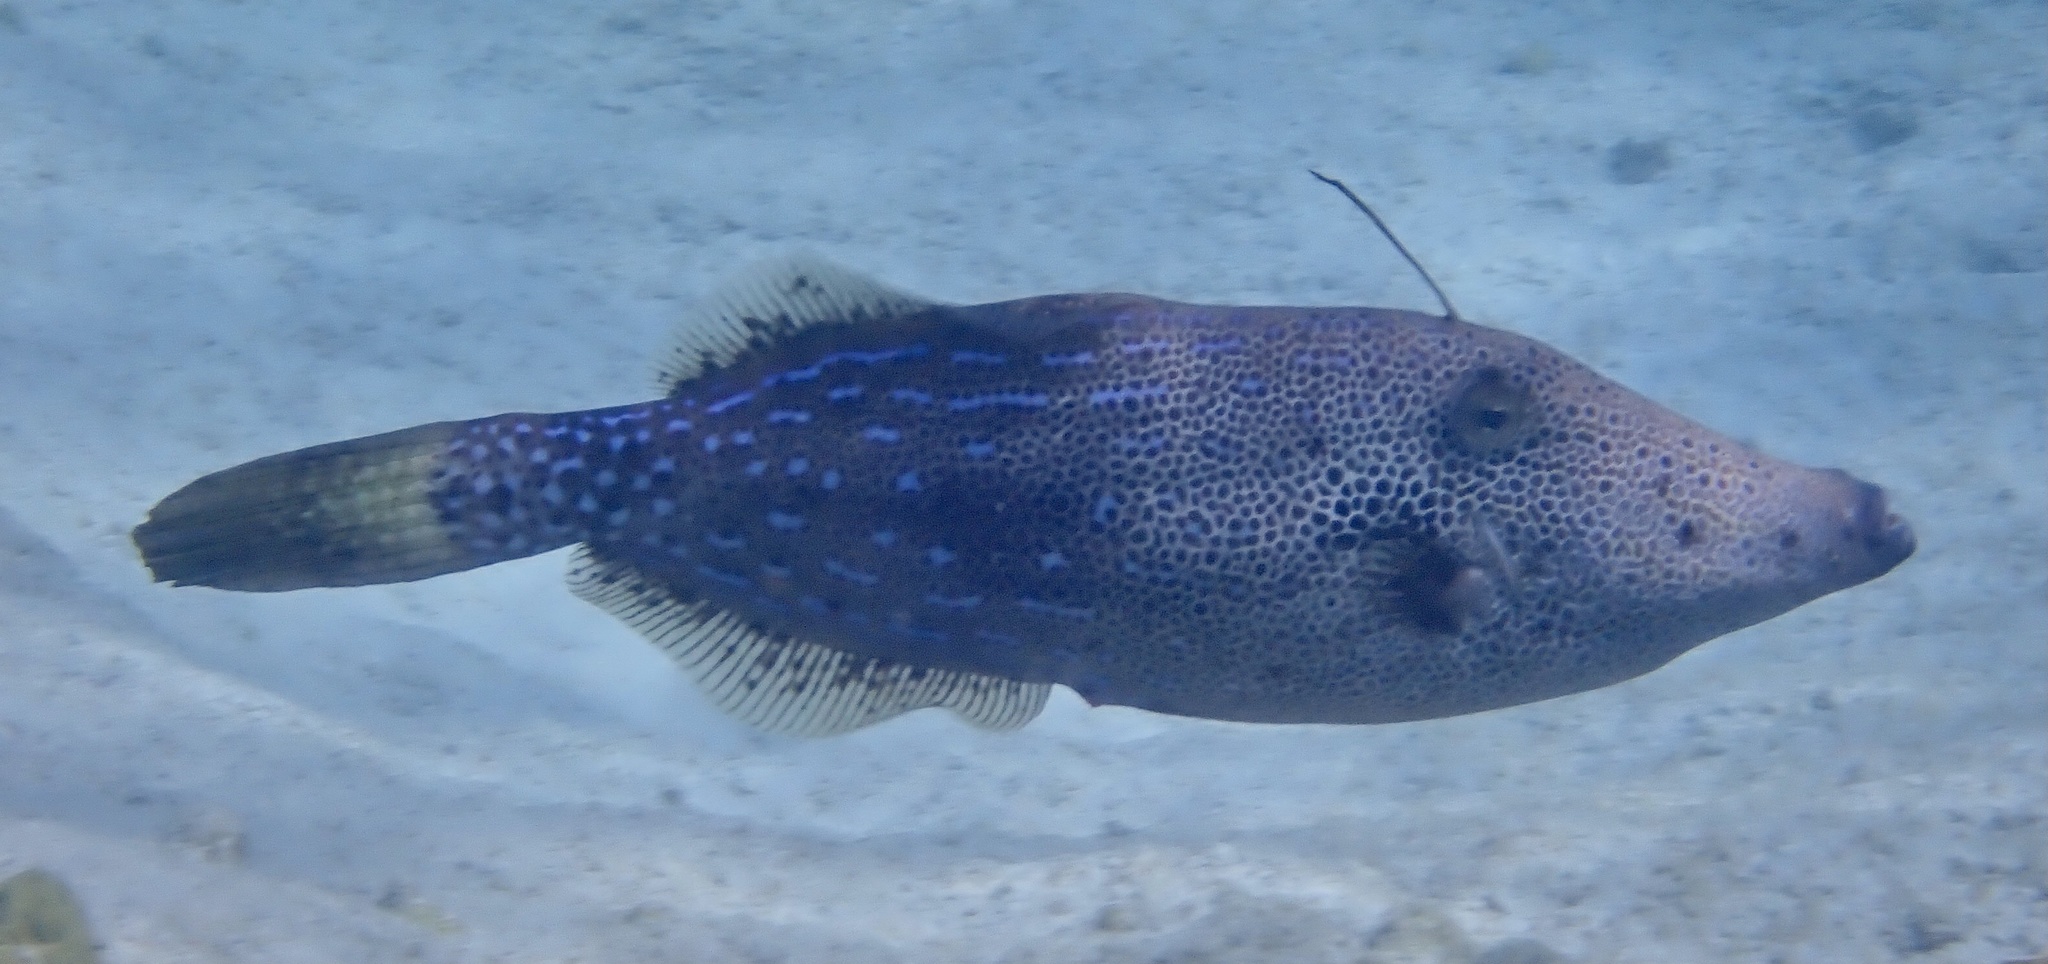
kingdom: Animalia
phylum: Chordata
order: Tetraodontiformes
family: Monacanthidae
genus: Aluterus
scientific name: Aluterus scriptus
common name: Scribbled leatherjacket filefish
